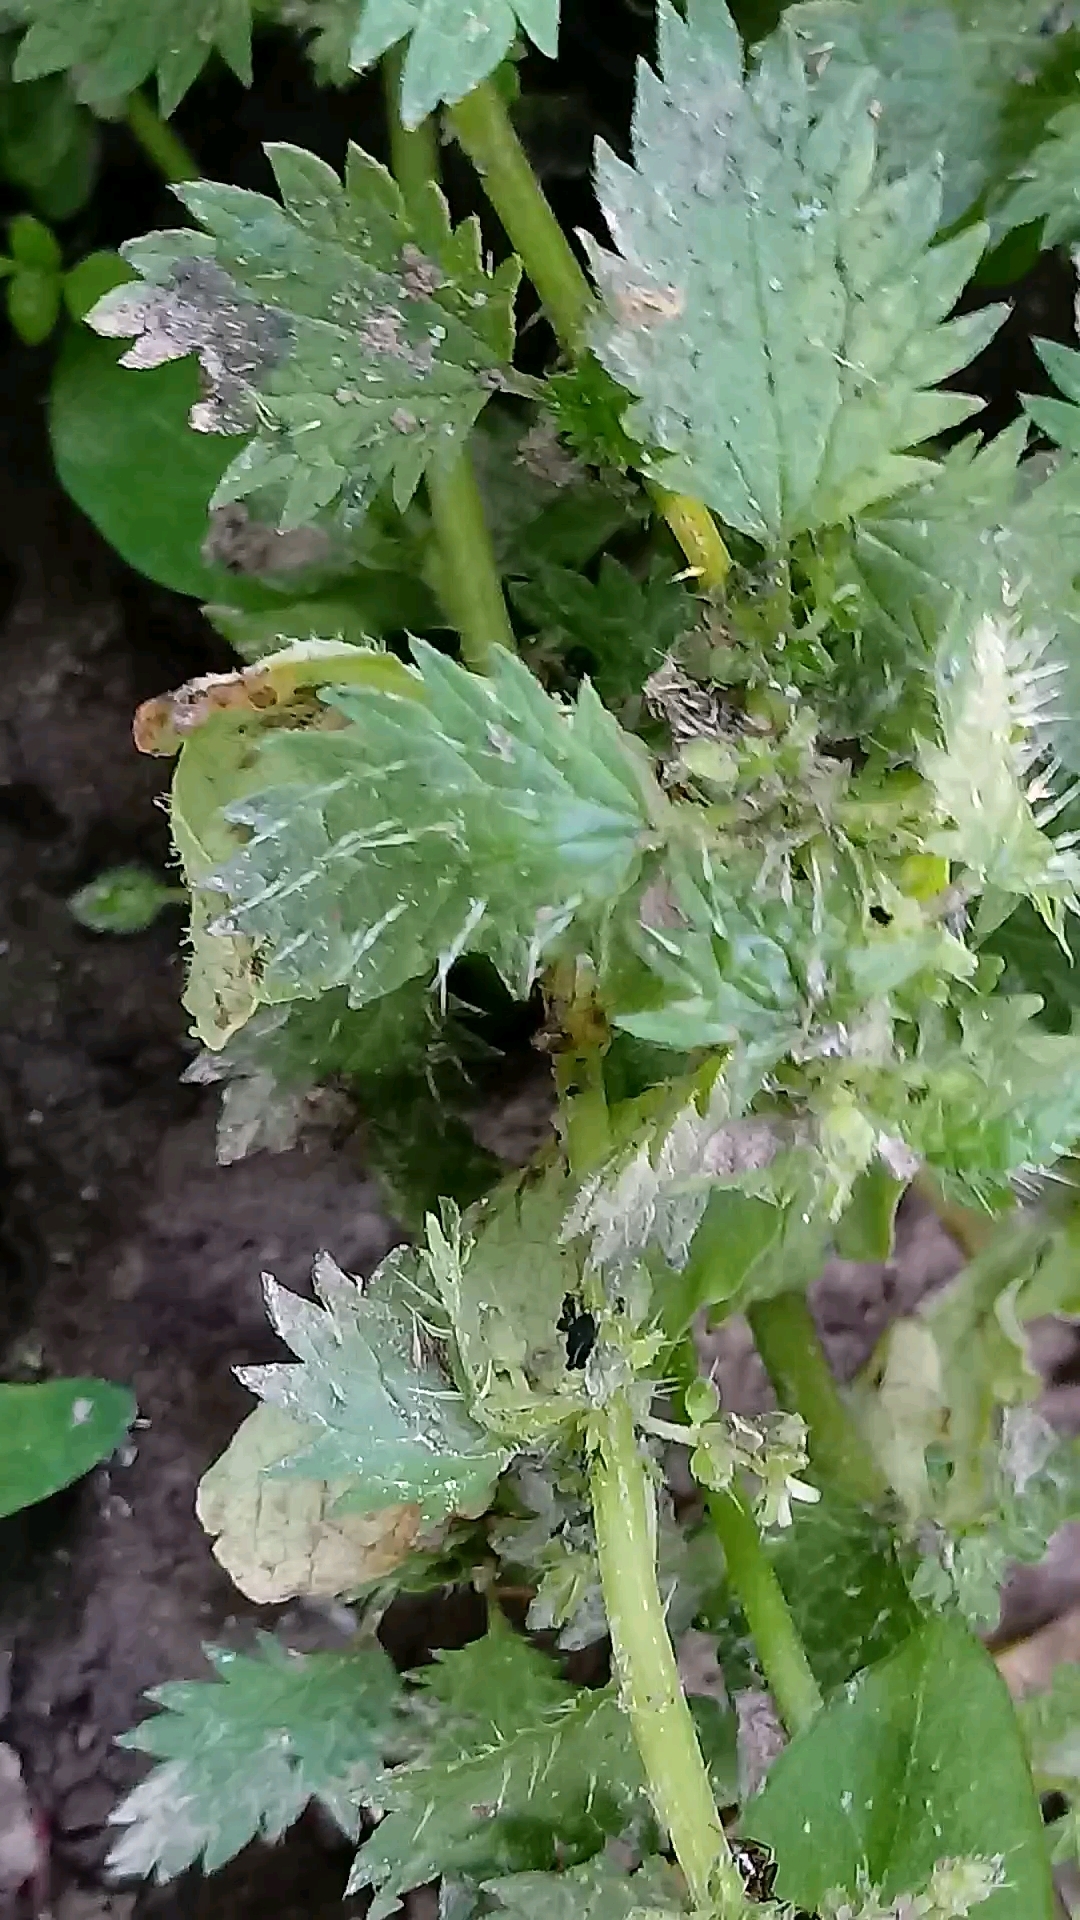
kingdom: Plantae
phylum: Tracheophyta
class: Magnoliopsida
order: Rosales
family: Urticaceae
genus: Urtica
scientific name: Urtica urens
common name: Dwarf nettle
